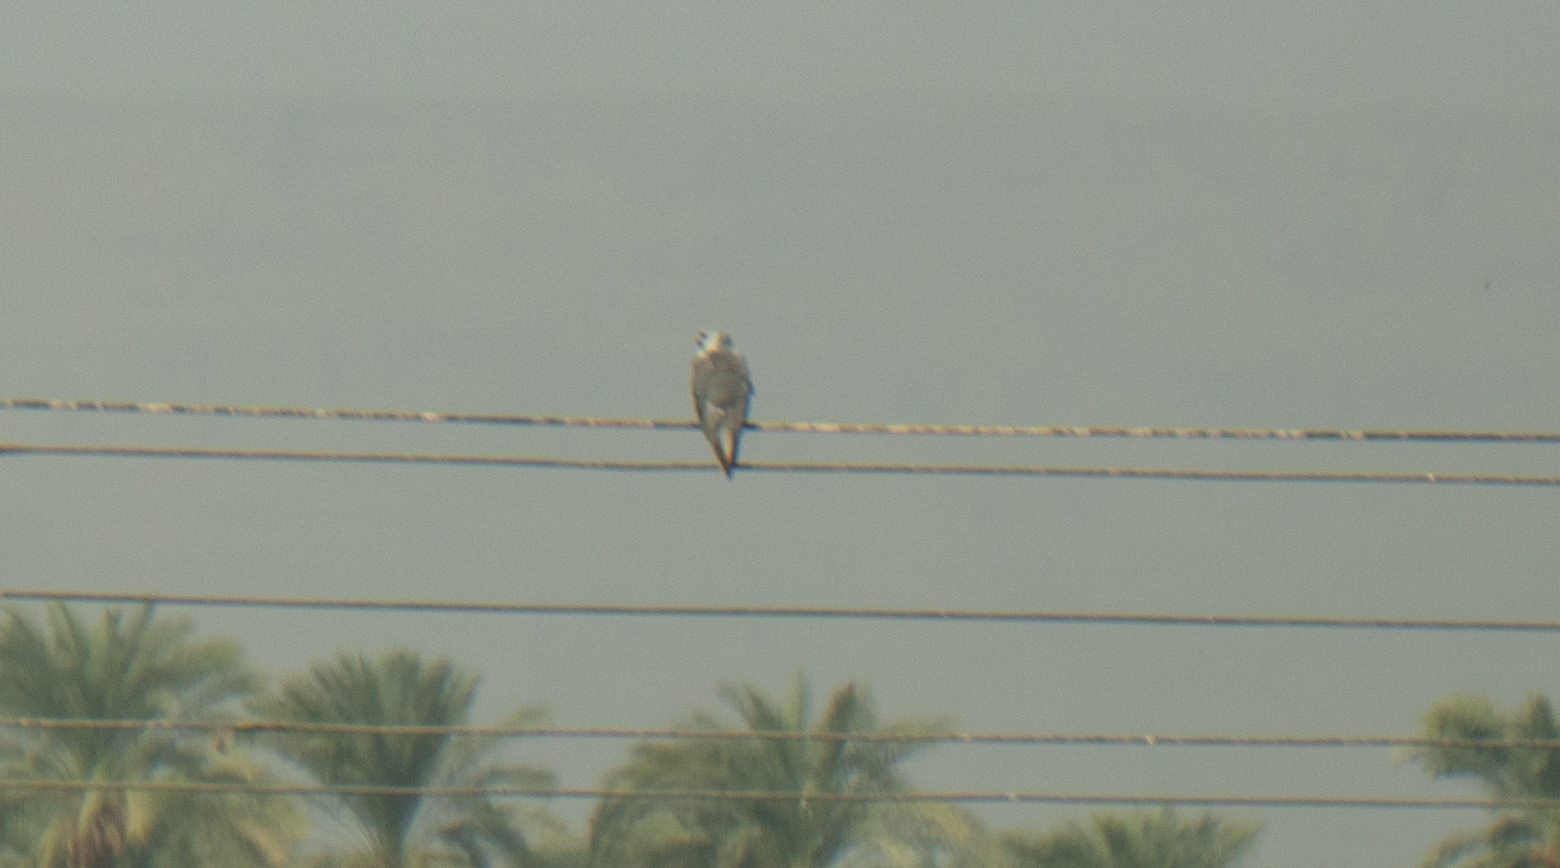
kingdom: Animalia
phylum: Chordata
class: Aves
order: Accipitriformes
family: Accipitridae
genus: Elanus
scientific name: Elanus caeruleus
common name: Black-winged kite
